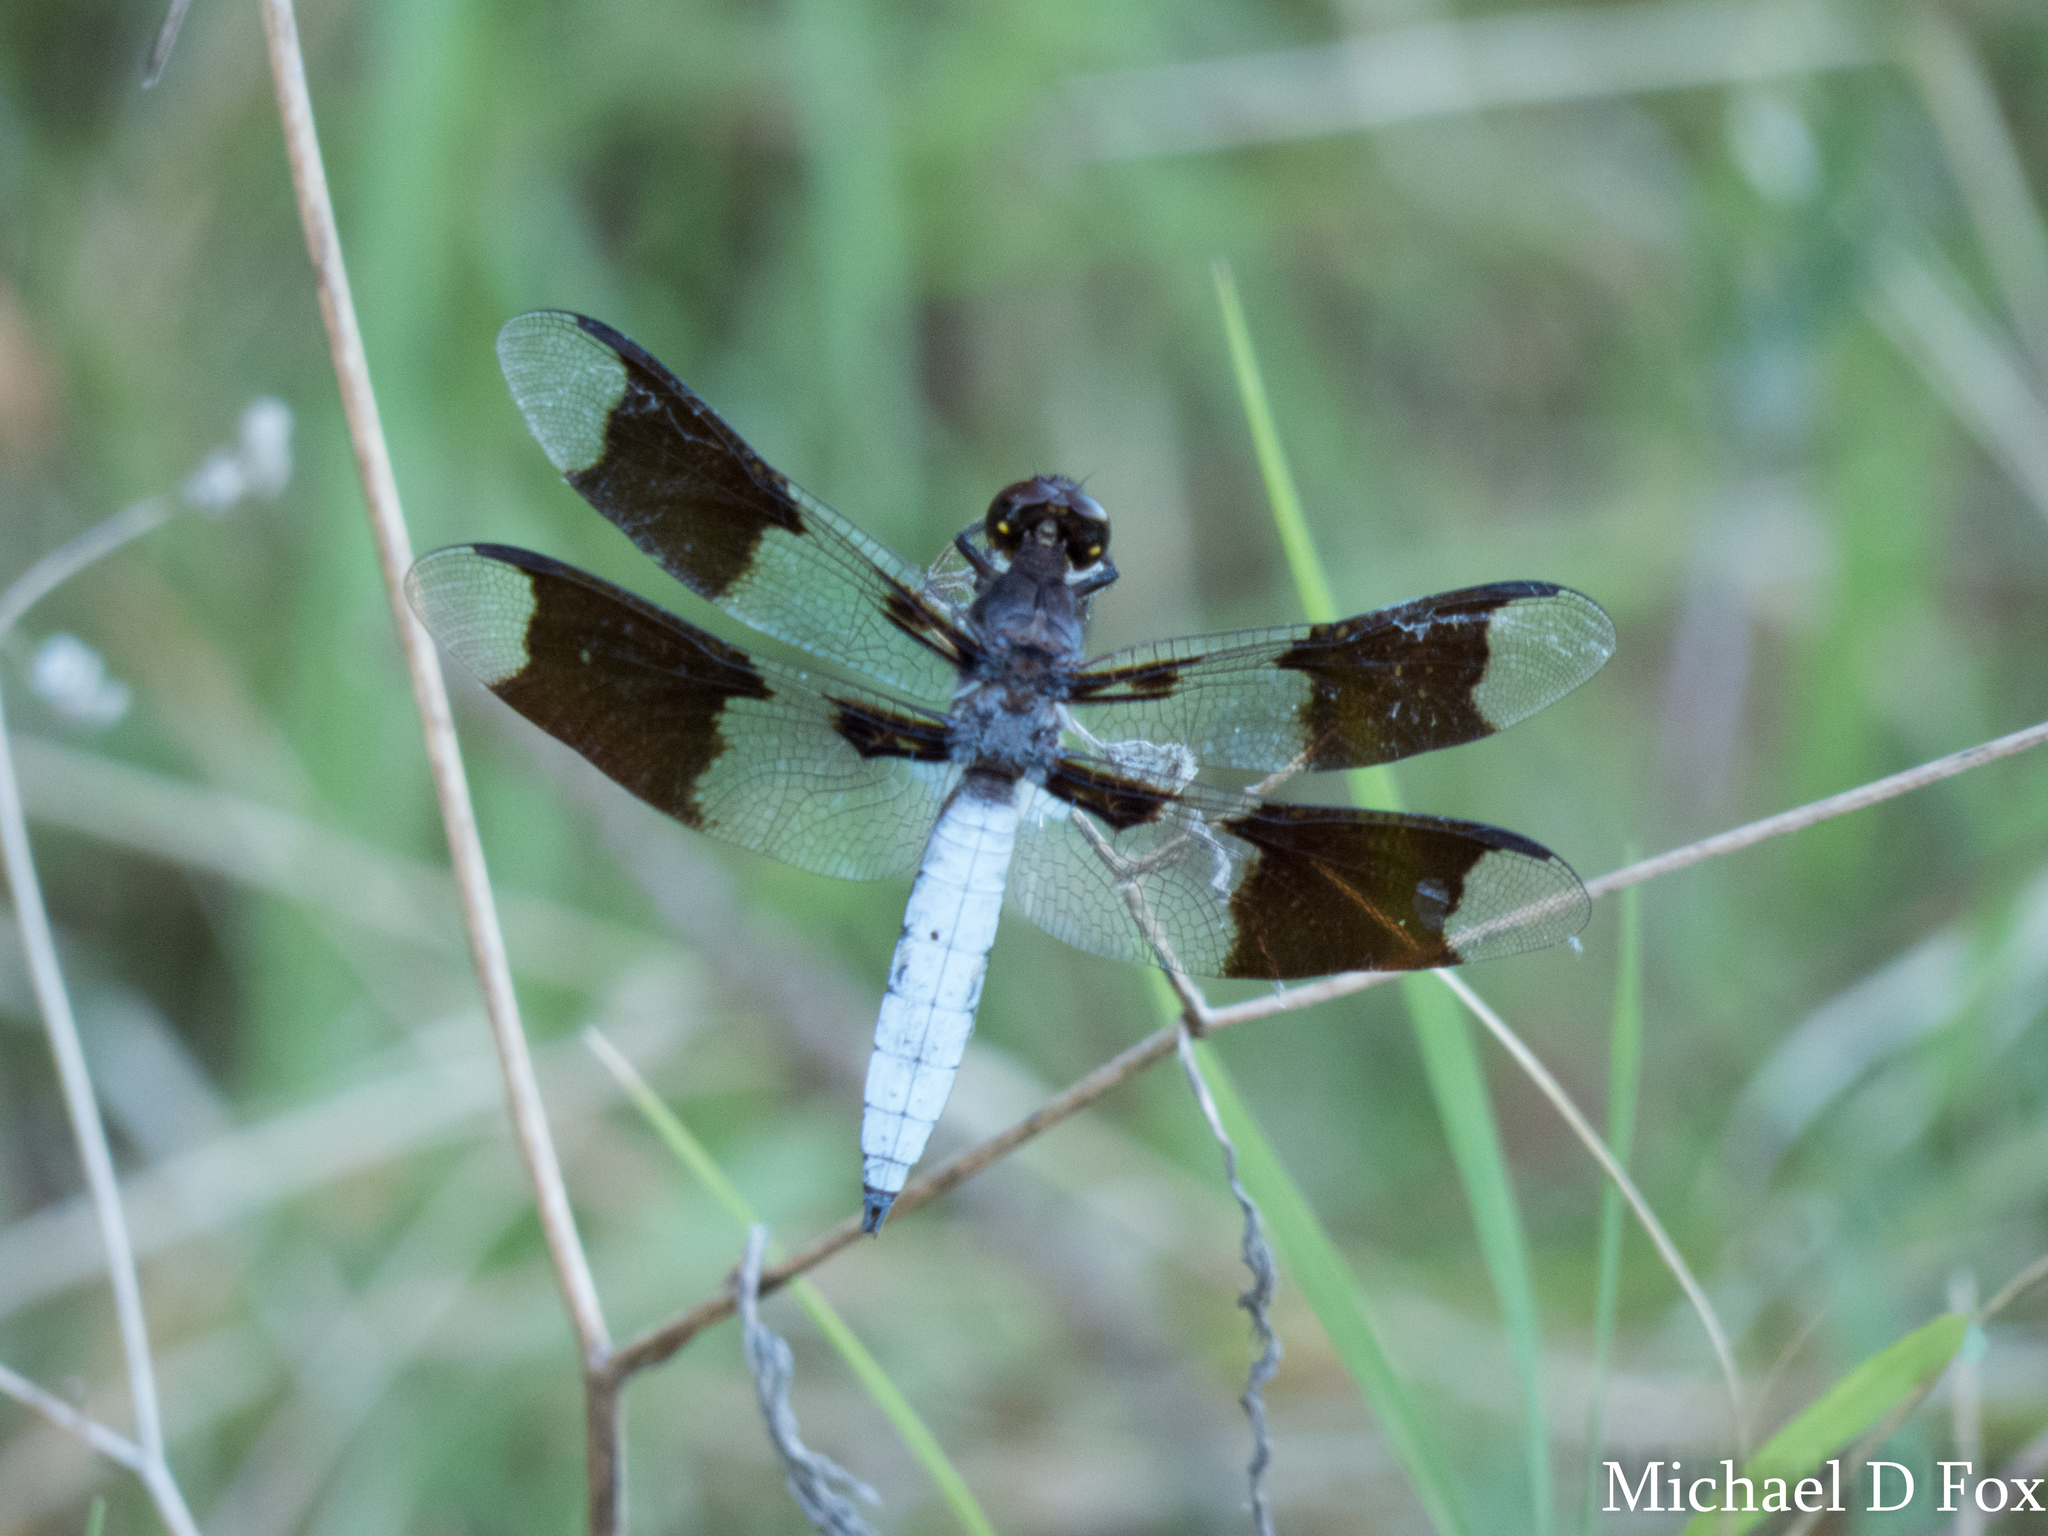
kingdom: Animalia
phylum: Arthropoda
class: Insecta
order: Odonata
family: Libellulidae
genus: Plathemis
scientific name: Plathemis lydia
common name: Common whitetail
